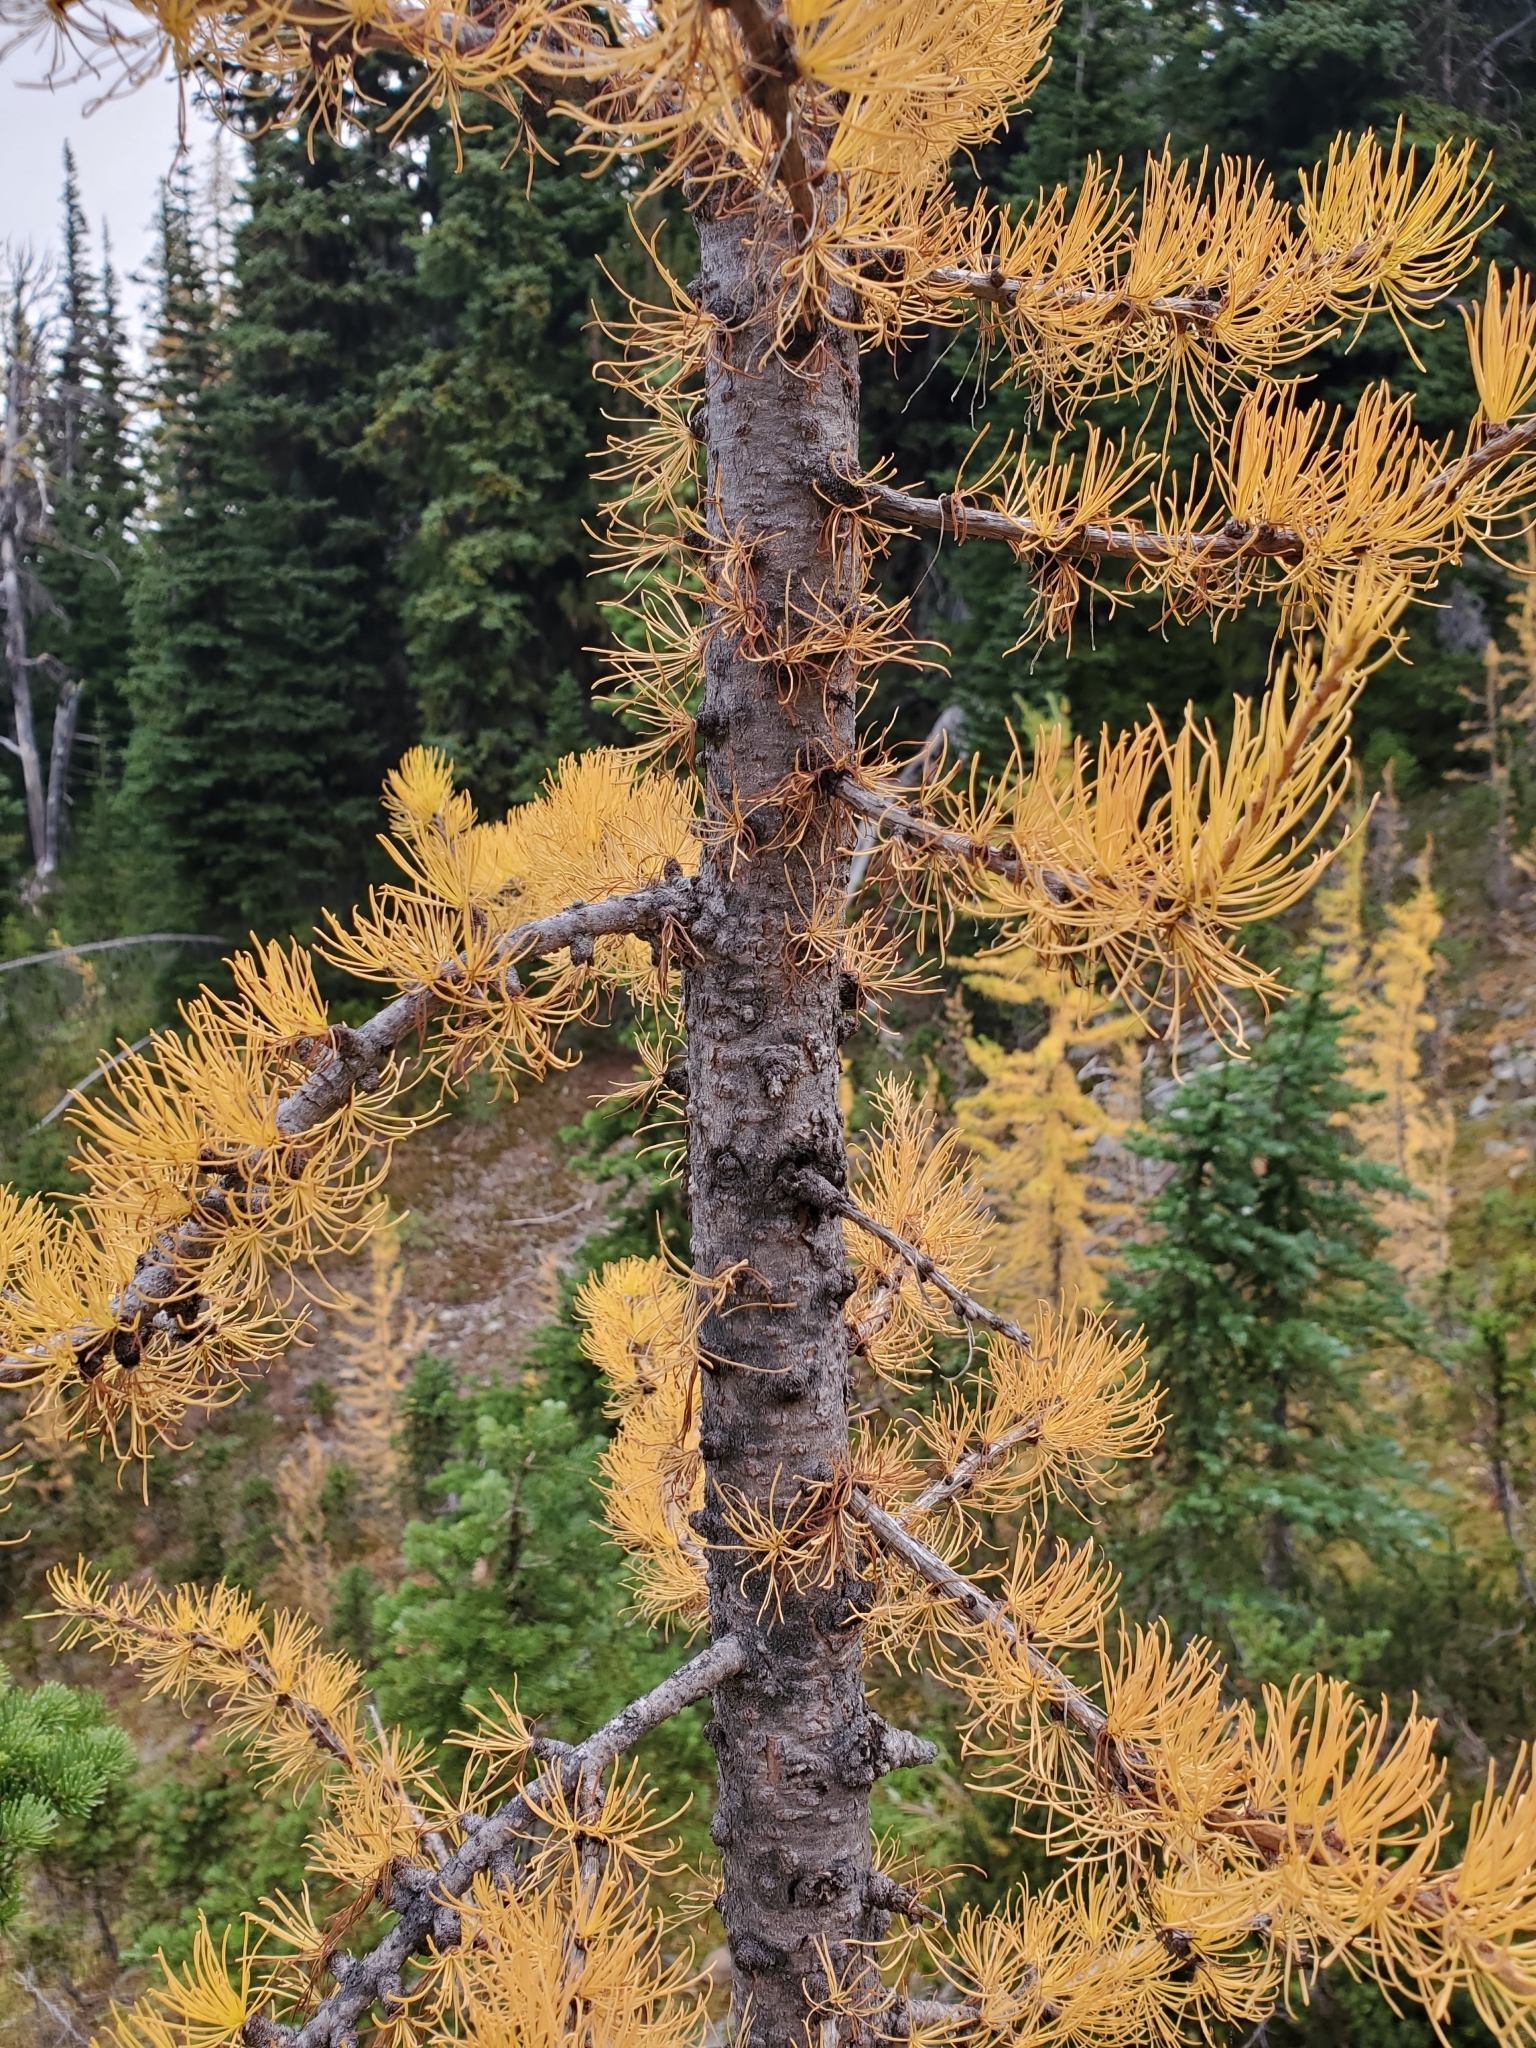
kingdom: Plantae
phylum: Tracheophyta
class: Pinopsida
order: Pinales
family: Pinaceae
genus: Larix
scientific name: Larix lyallii
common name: Alpine larch
